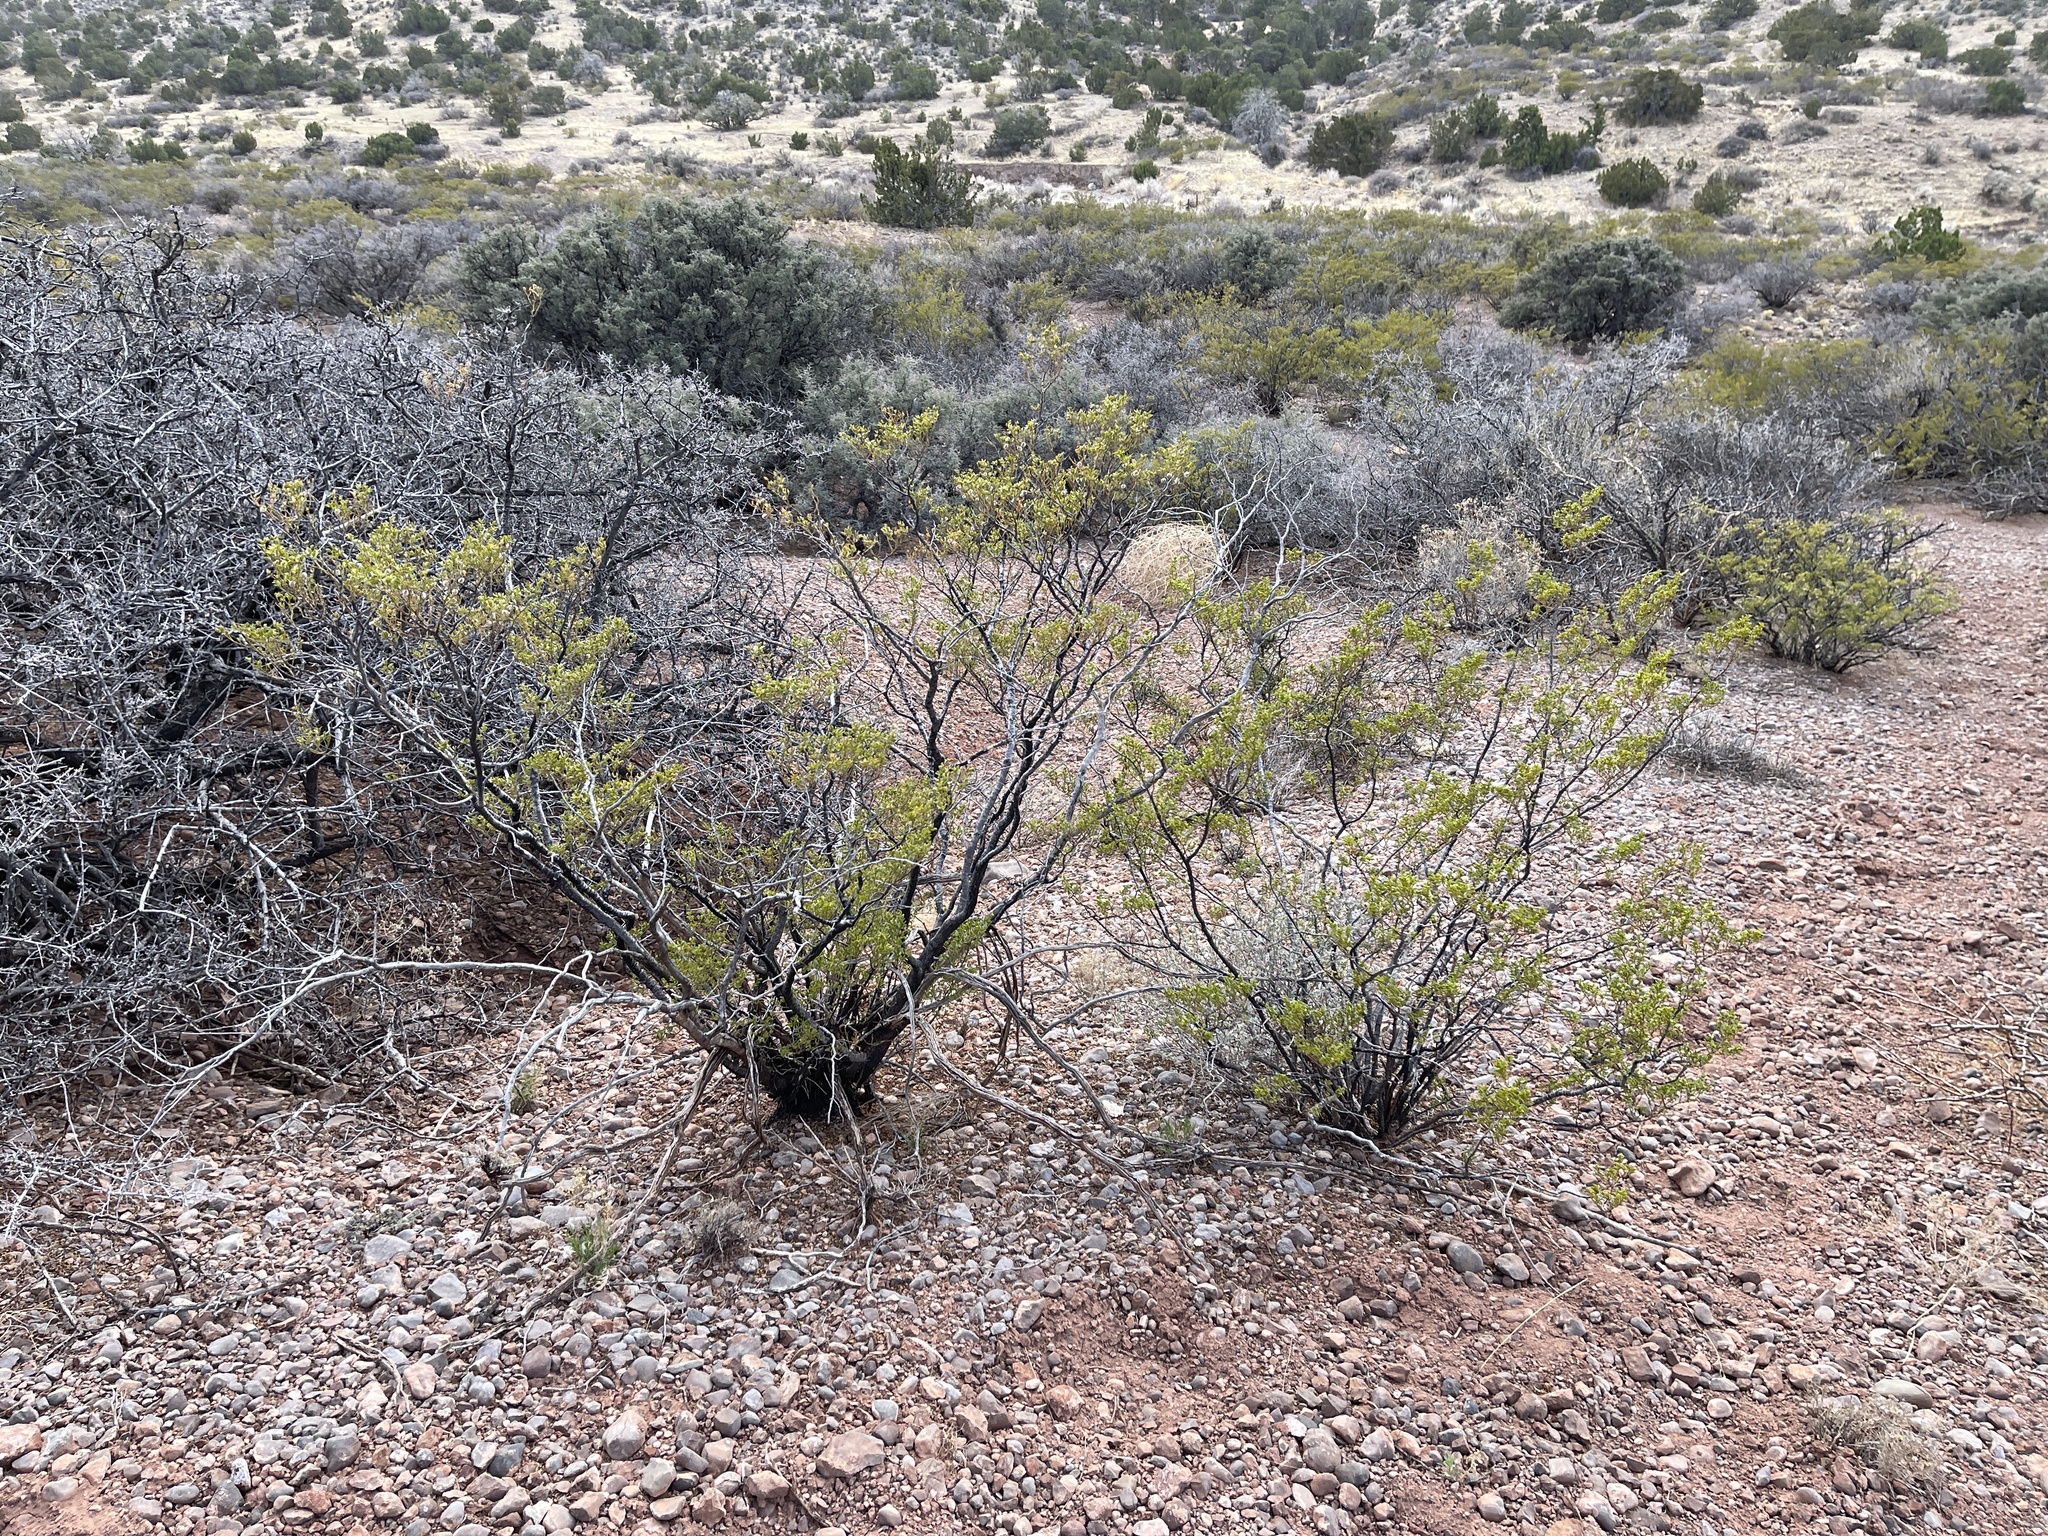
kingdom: Plantae
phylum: Tracheophyta
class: Magnoliopsida
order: Zygophyllales
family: Zygophyllaceae
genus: Larrea
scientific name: Larrea tridentata
